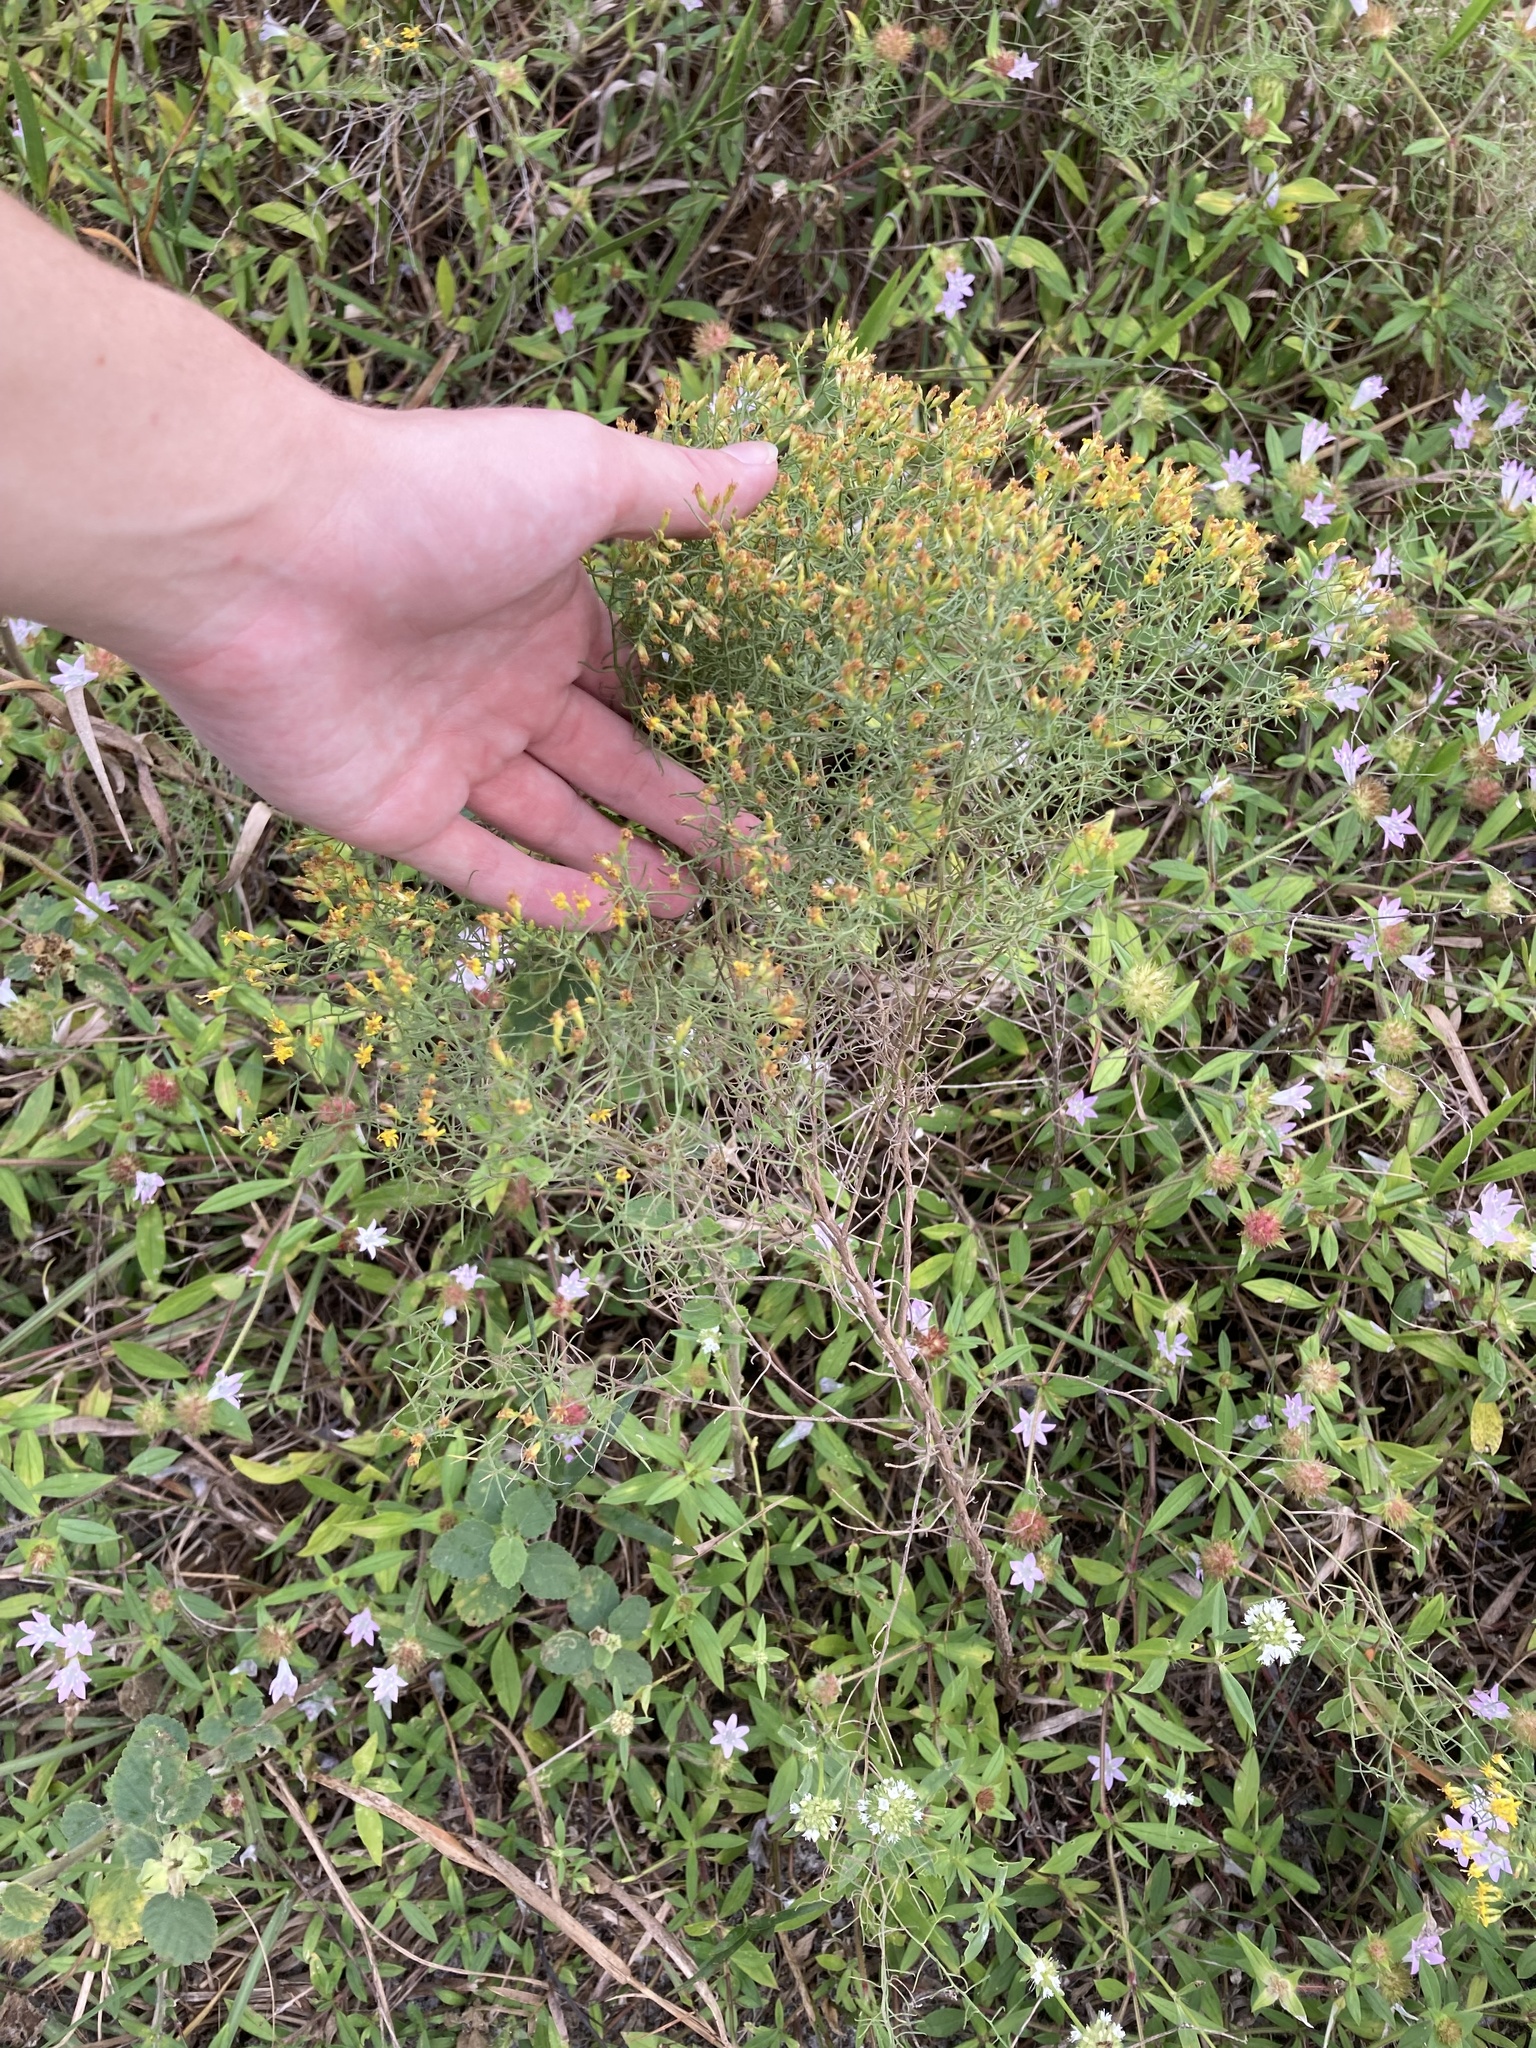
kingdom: Plantae
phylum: Tracheophyta
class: Magnoliopsida
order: Asterales
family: Asteraceae
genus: Euthamia
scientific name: Euthamia caroliniana
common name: Coastal plain goldentop
